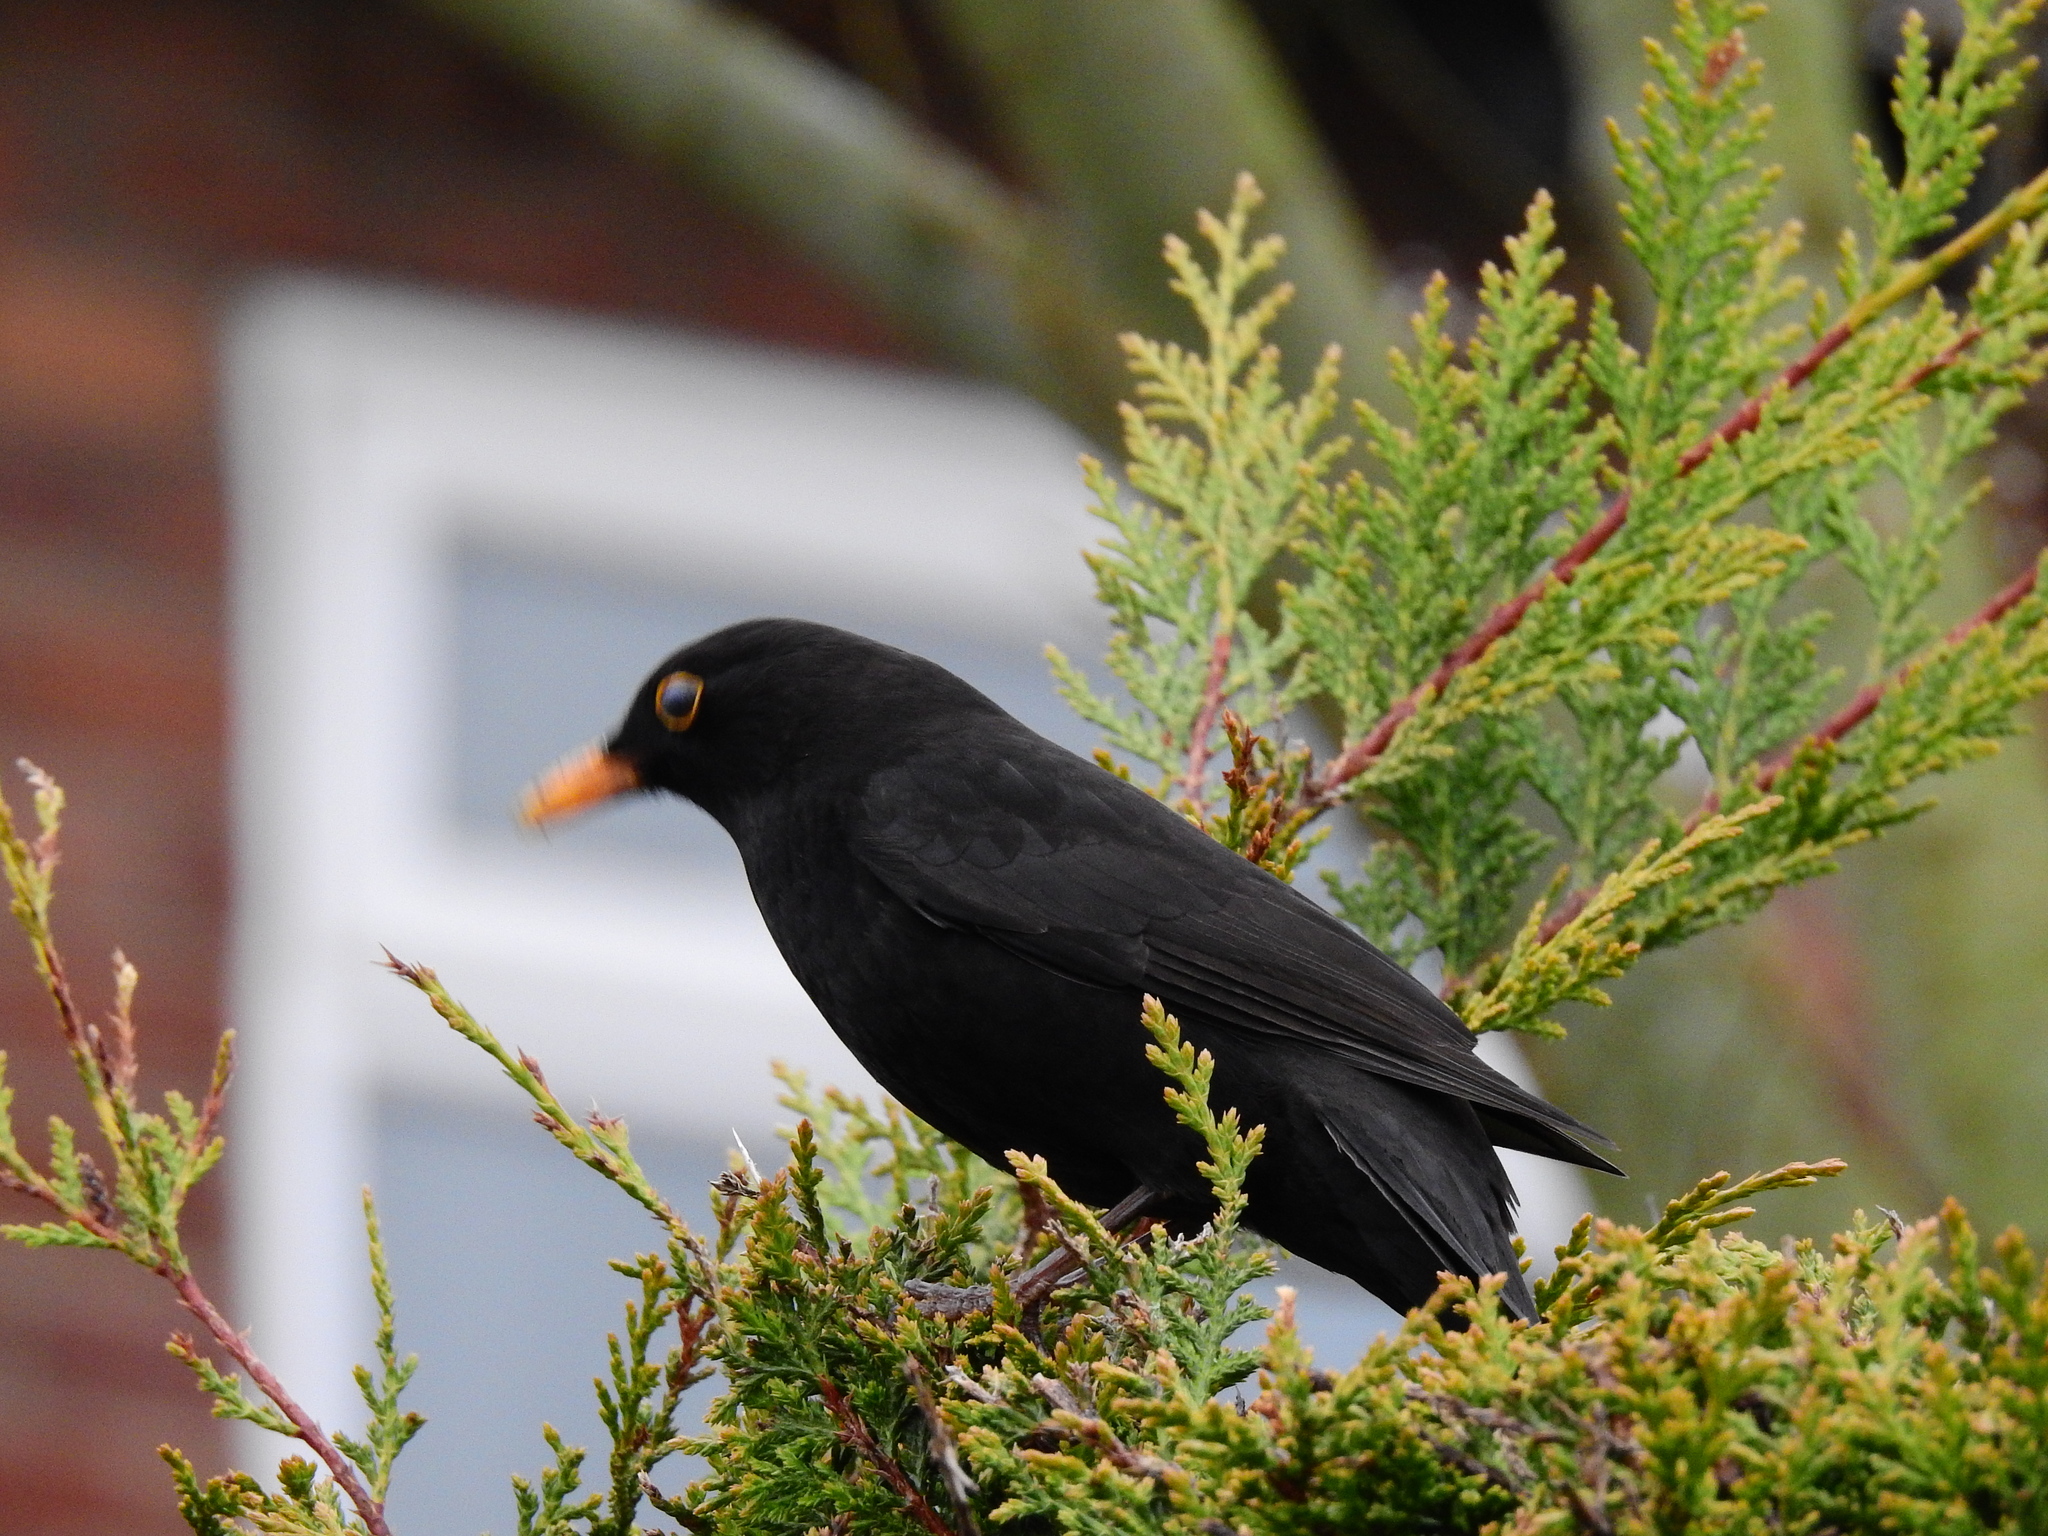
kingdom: Animalia
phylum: Chordata
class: Aves
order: Passeriformes
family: Turdidae
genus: Turdus
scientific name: Turdus merula
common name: Common blackbird
